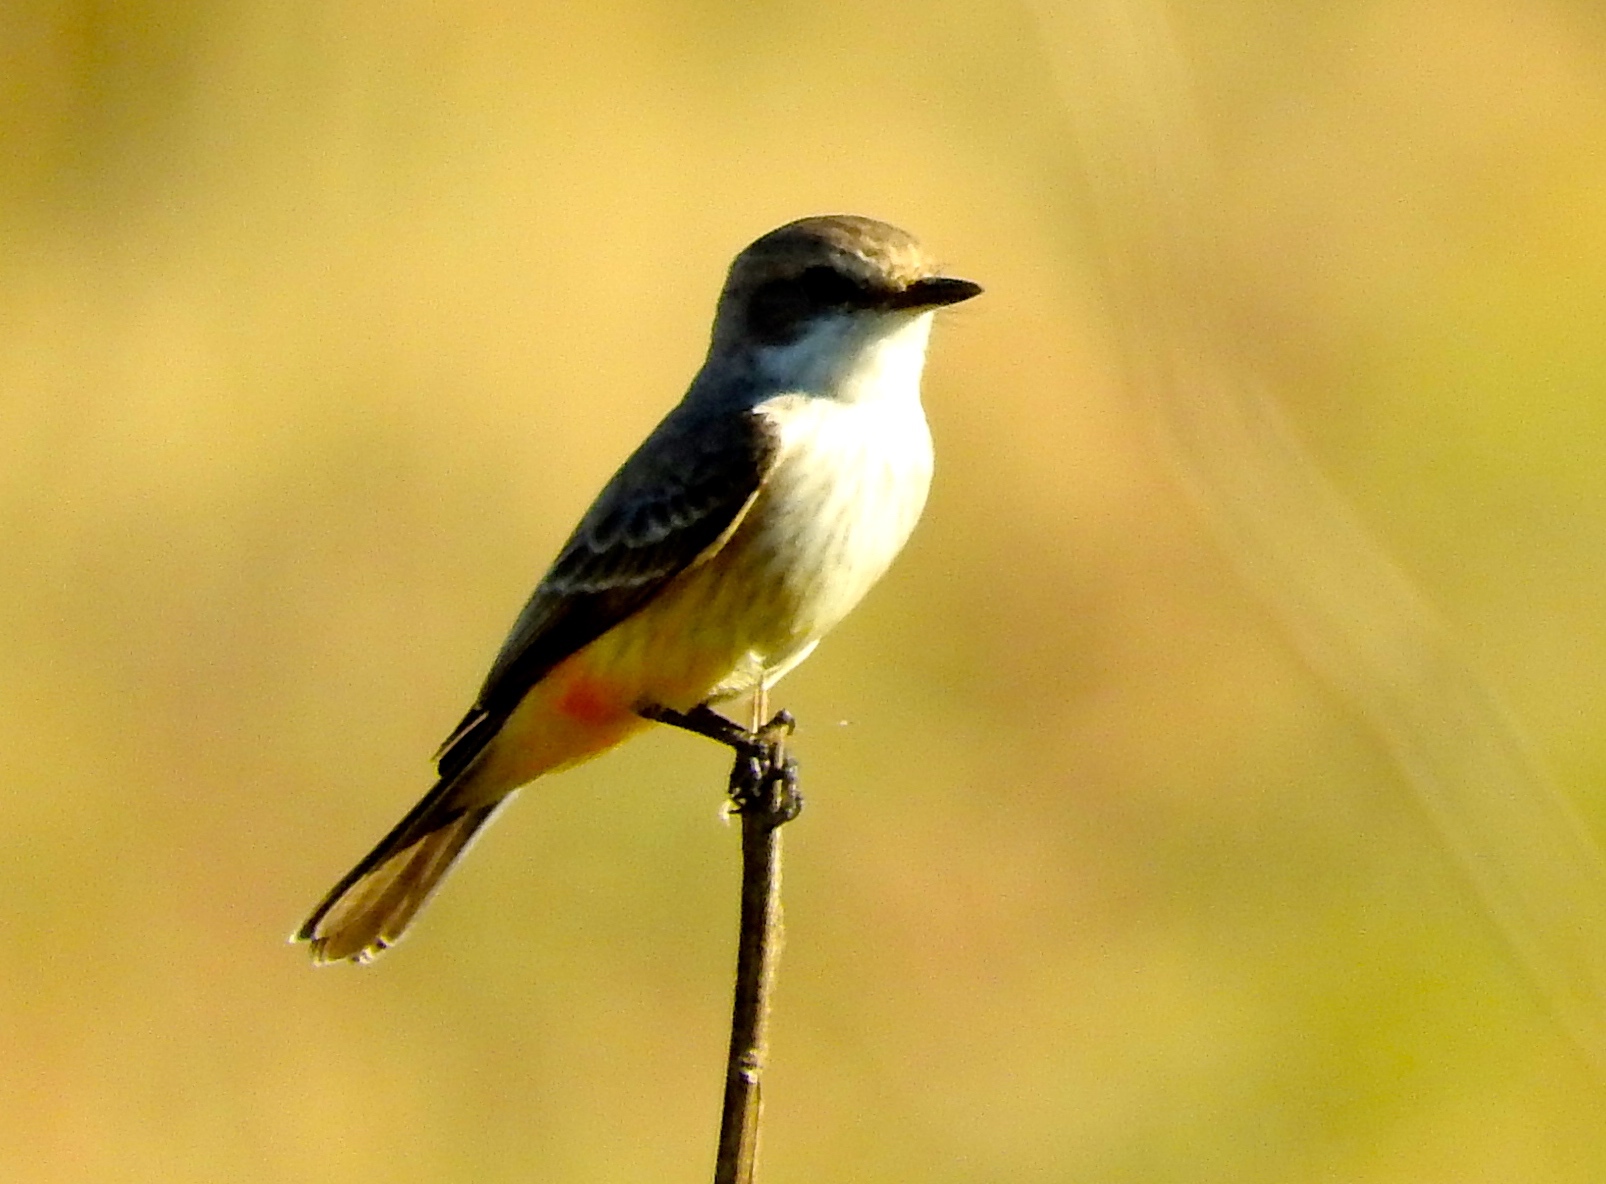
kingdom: Animalia
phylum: Chordata
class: Aves
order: Passeriformes
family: Tyrannidae
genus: Pyrocephalus
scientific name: Pyrocephalus rubinus
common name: Vermilion flycatcher
